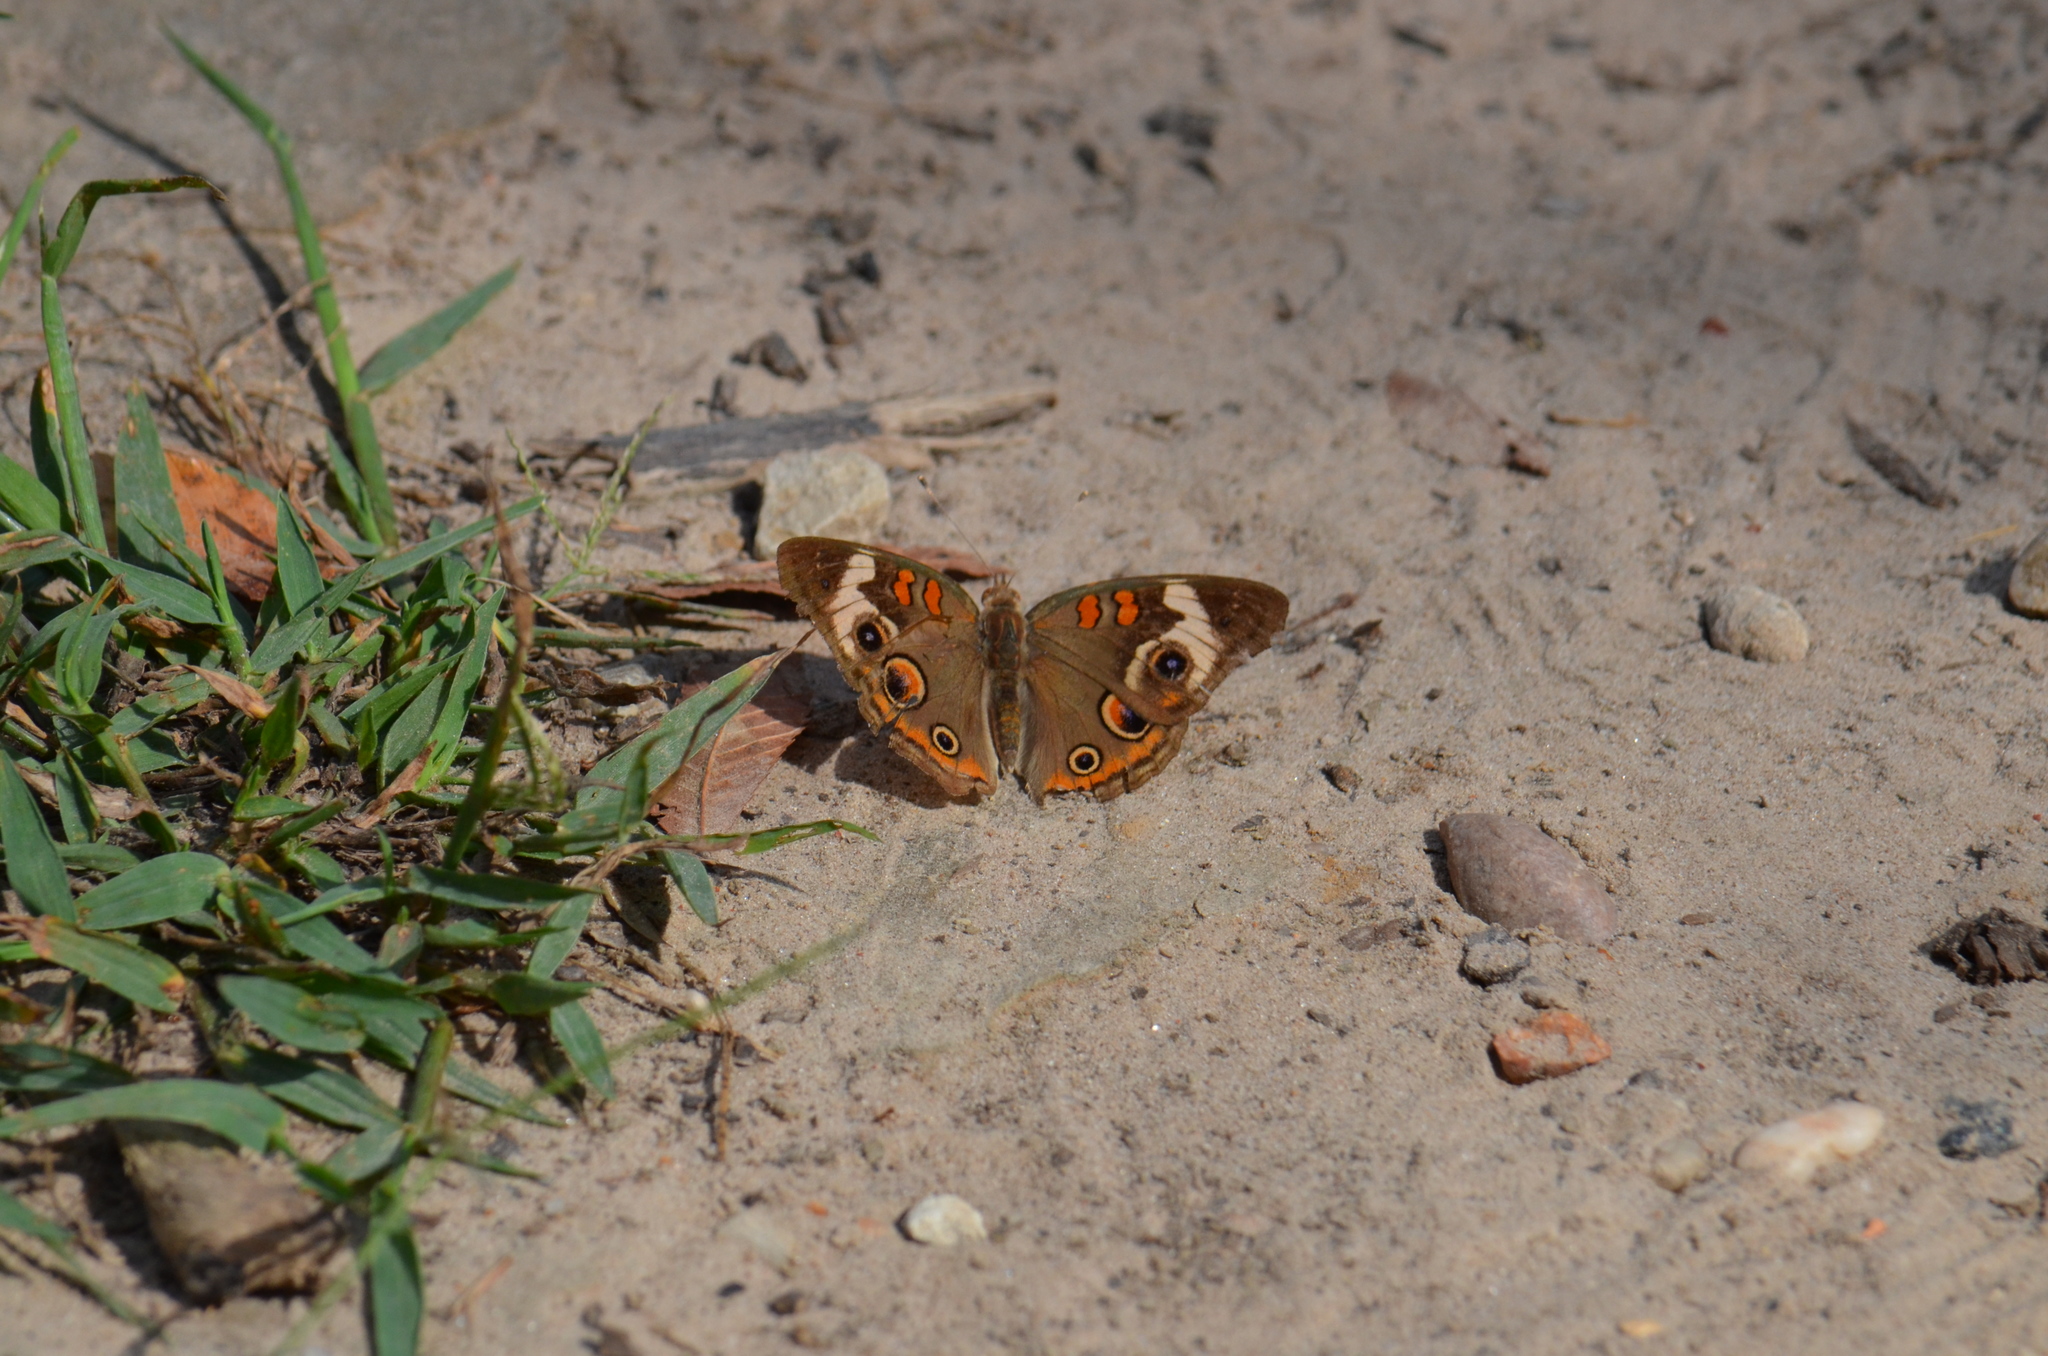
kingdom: Animalia
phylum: Arthropoda
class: Insecta
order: Lepidoptera
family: Nymphalidae
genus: Junonia
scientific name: Junonia coenia
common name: Common buckeye
